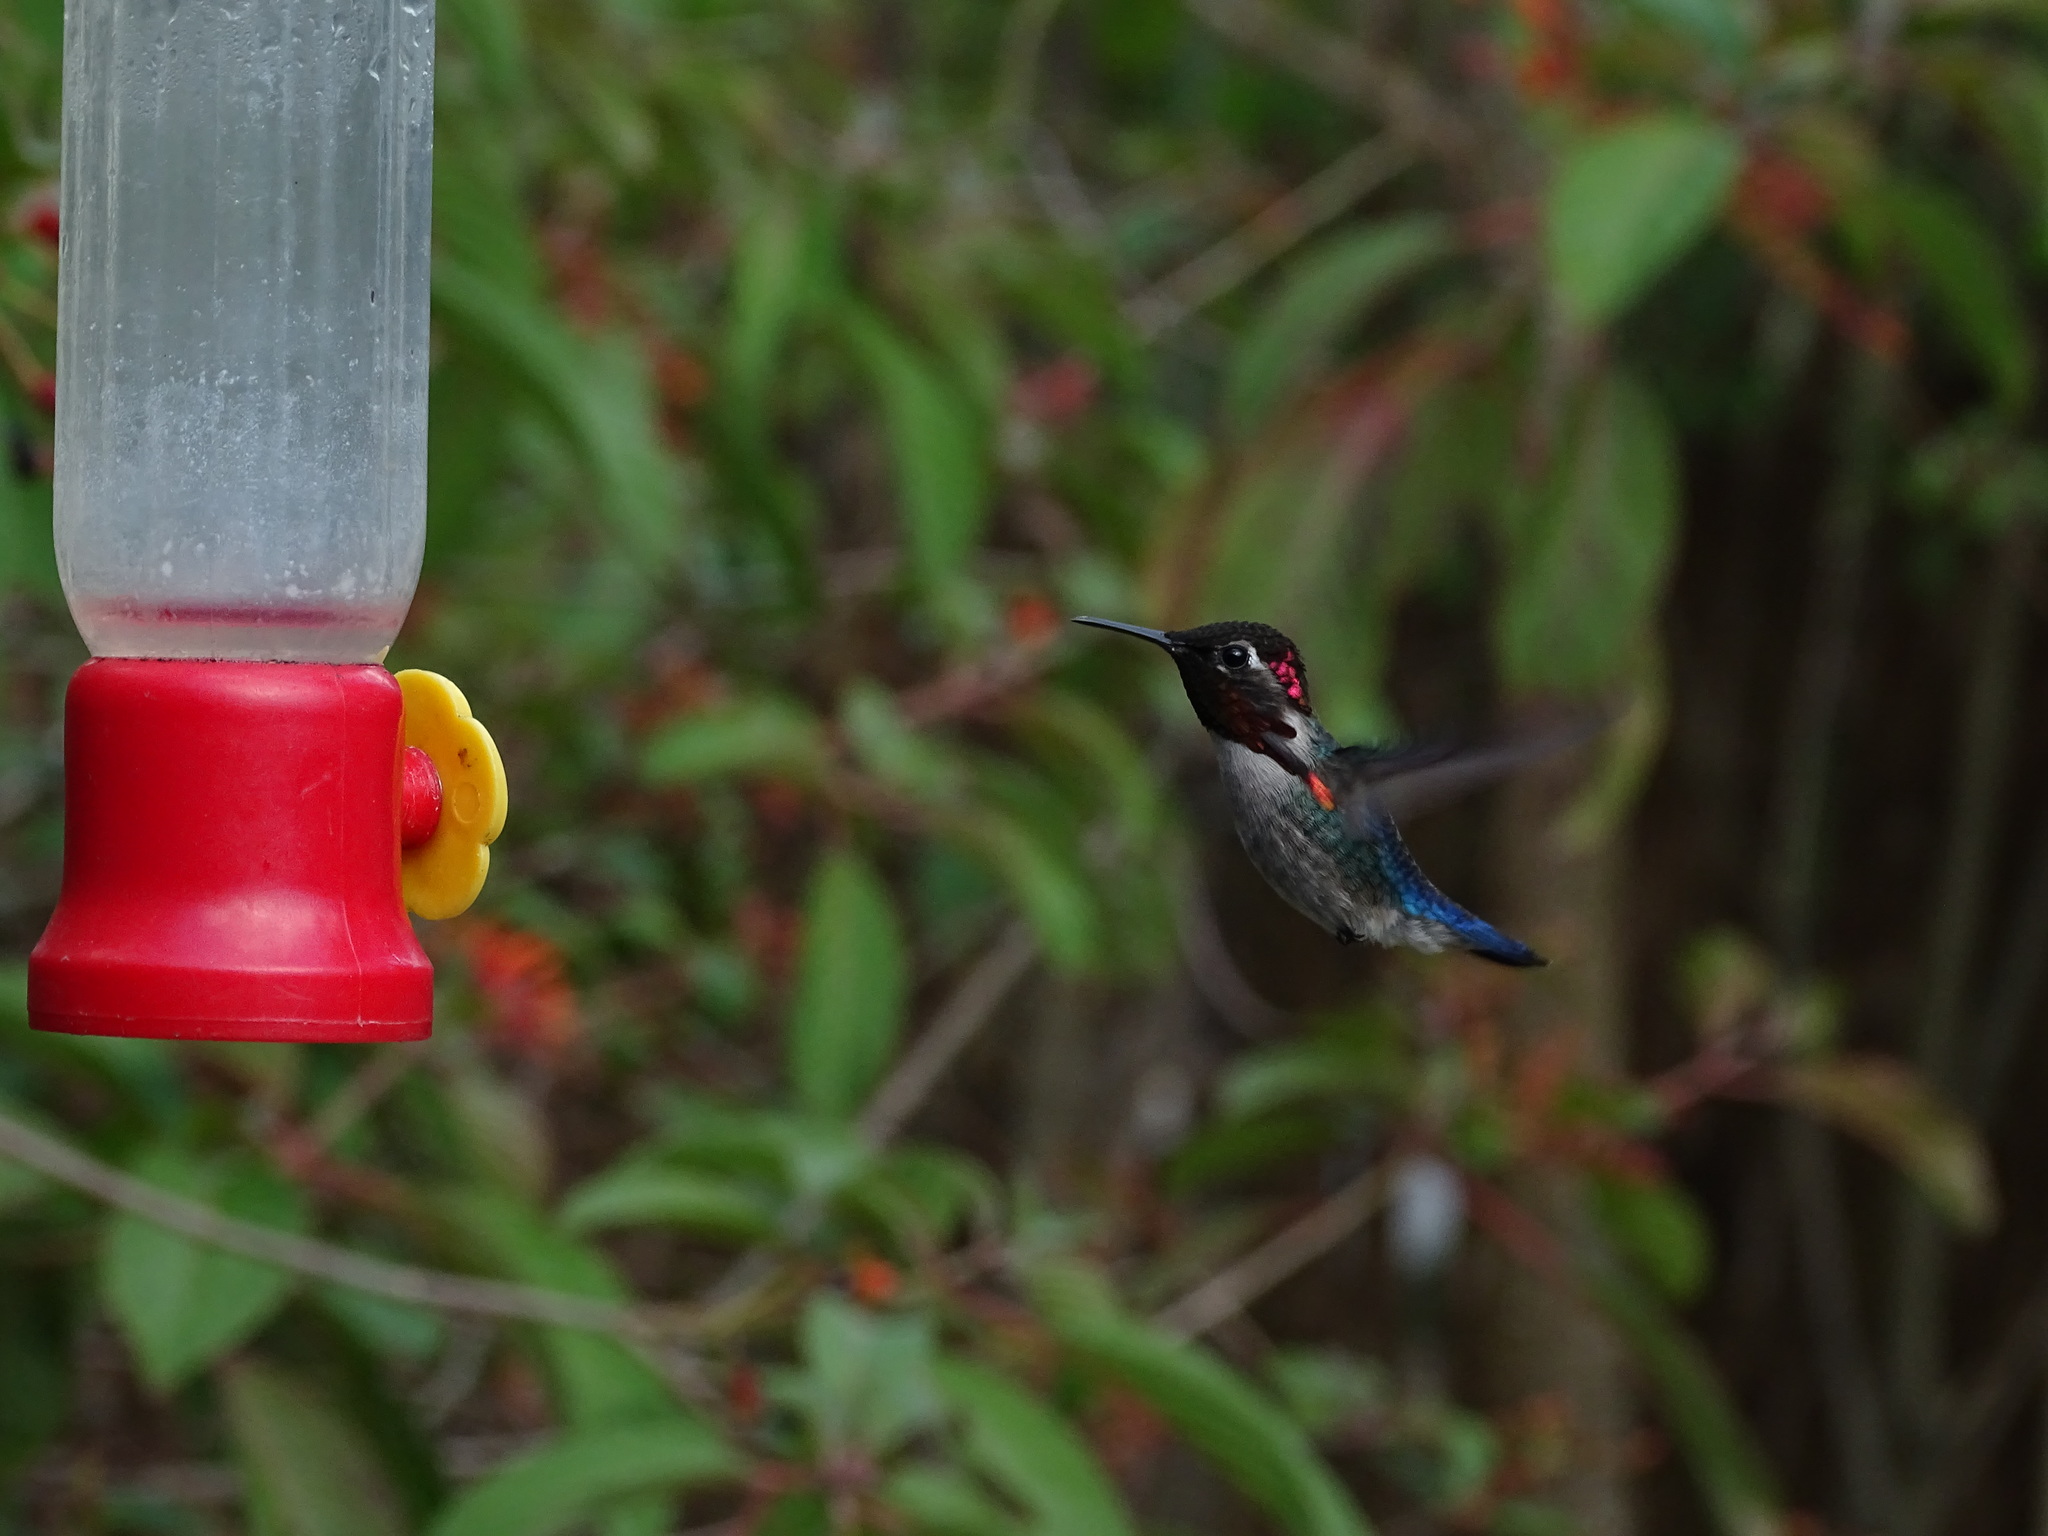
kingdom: Animalia
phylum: Chordata
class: Aves
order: Apodiformes
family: Trochilidae
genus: Mellisuga
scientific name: Mellisuga helenae
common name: Bee hummingbird
